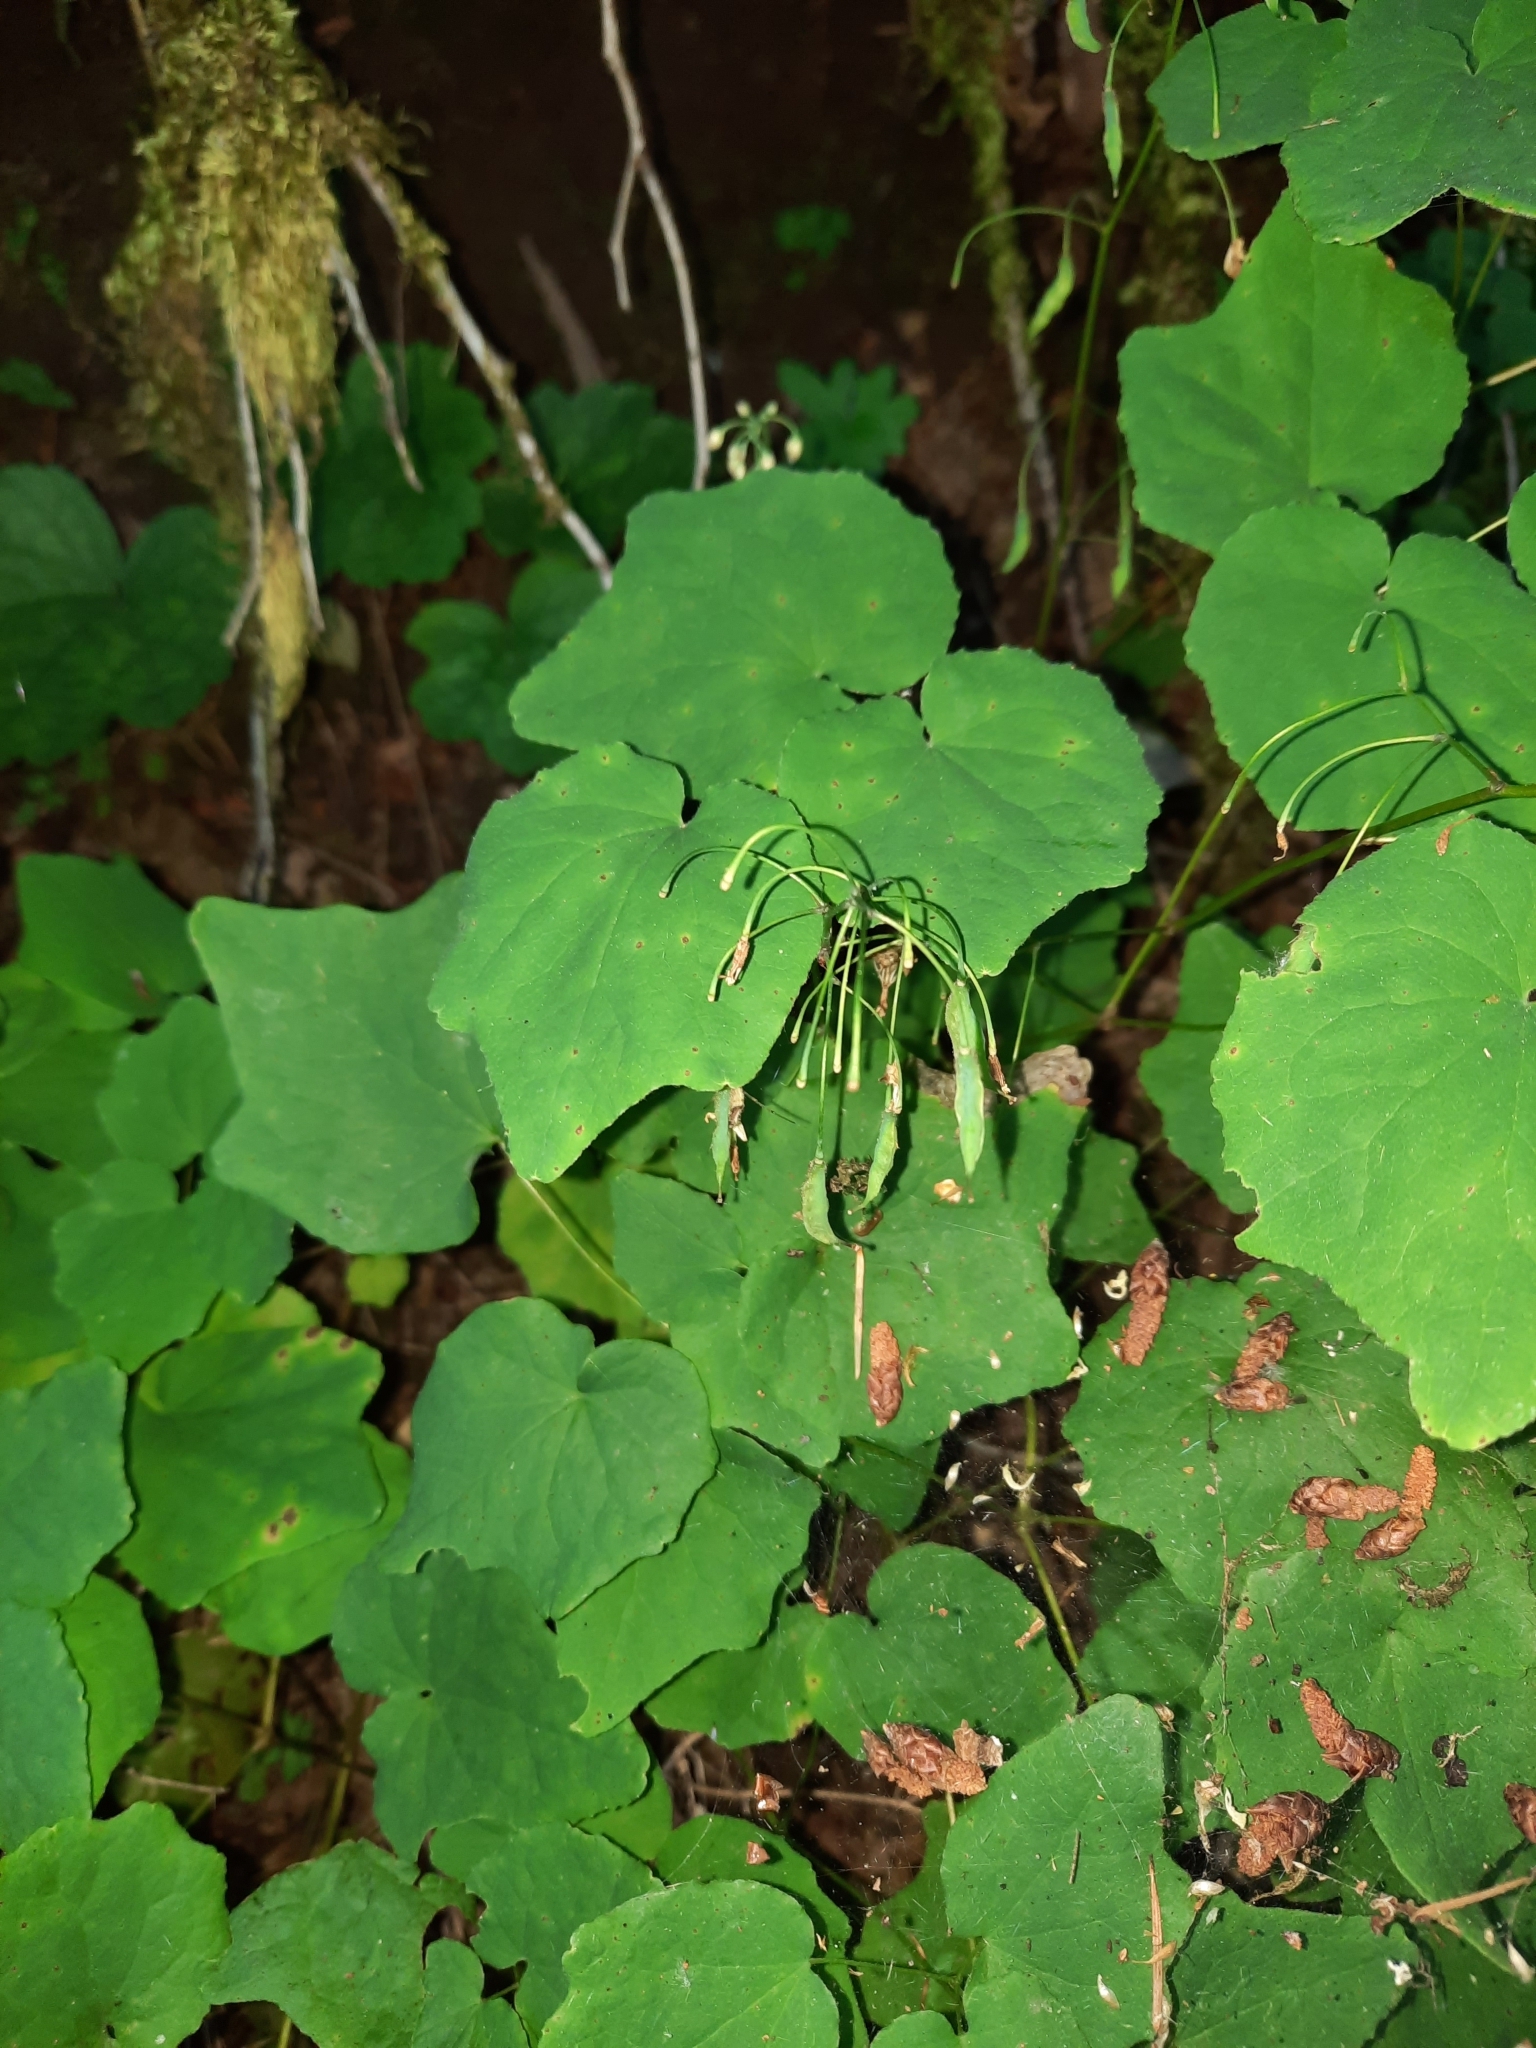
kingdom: Plantae
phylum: Tracheophyta
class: Magnoliopsida
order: Ranunculales
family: Berberidaceae
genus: Vancouveria
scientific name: Vancouveria hexandra
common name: Northern inside-out-flower
